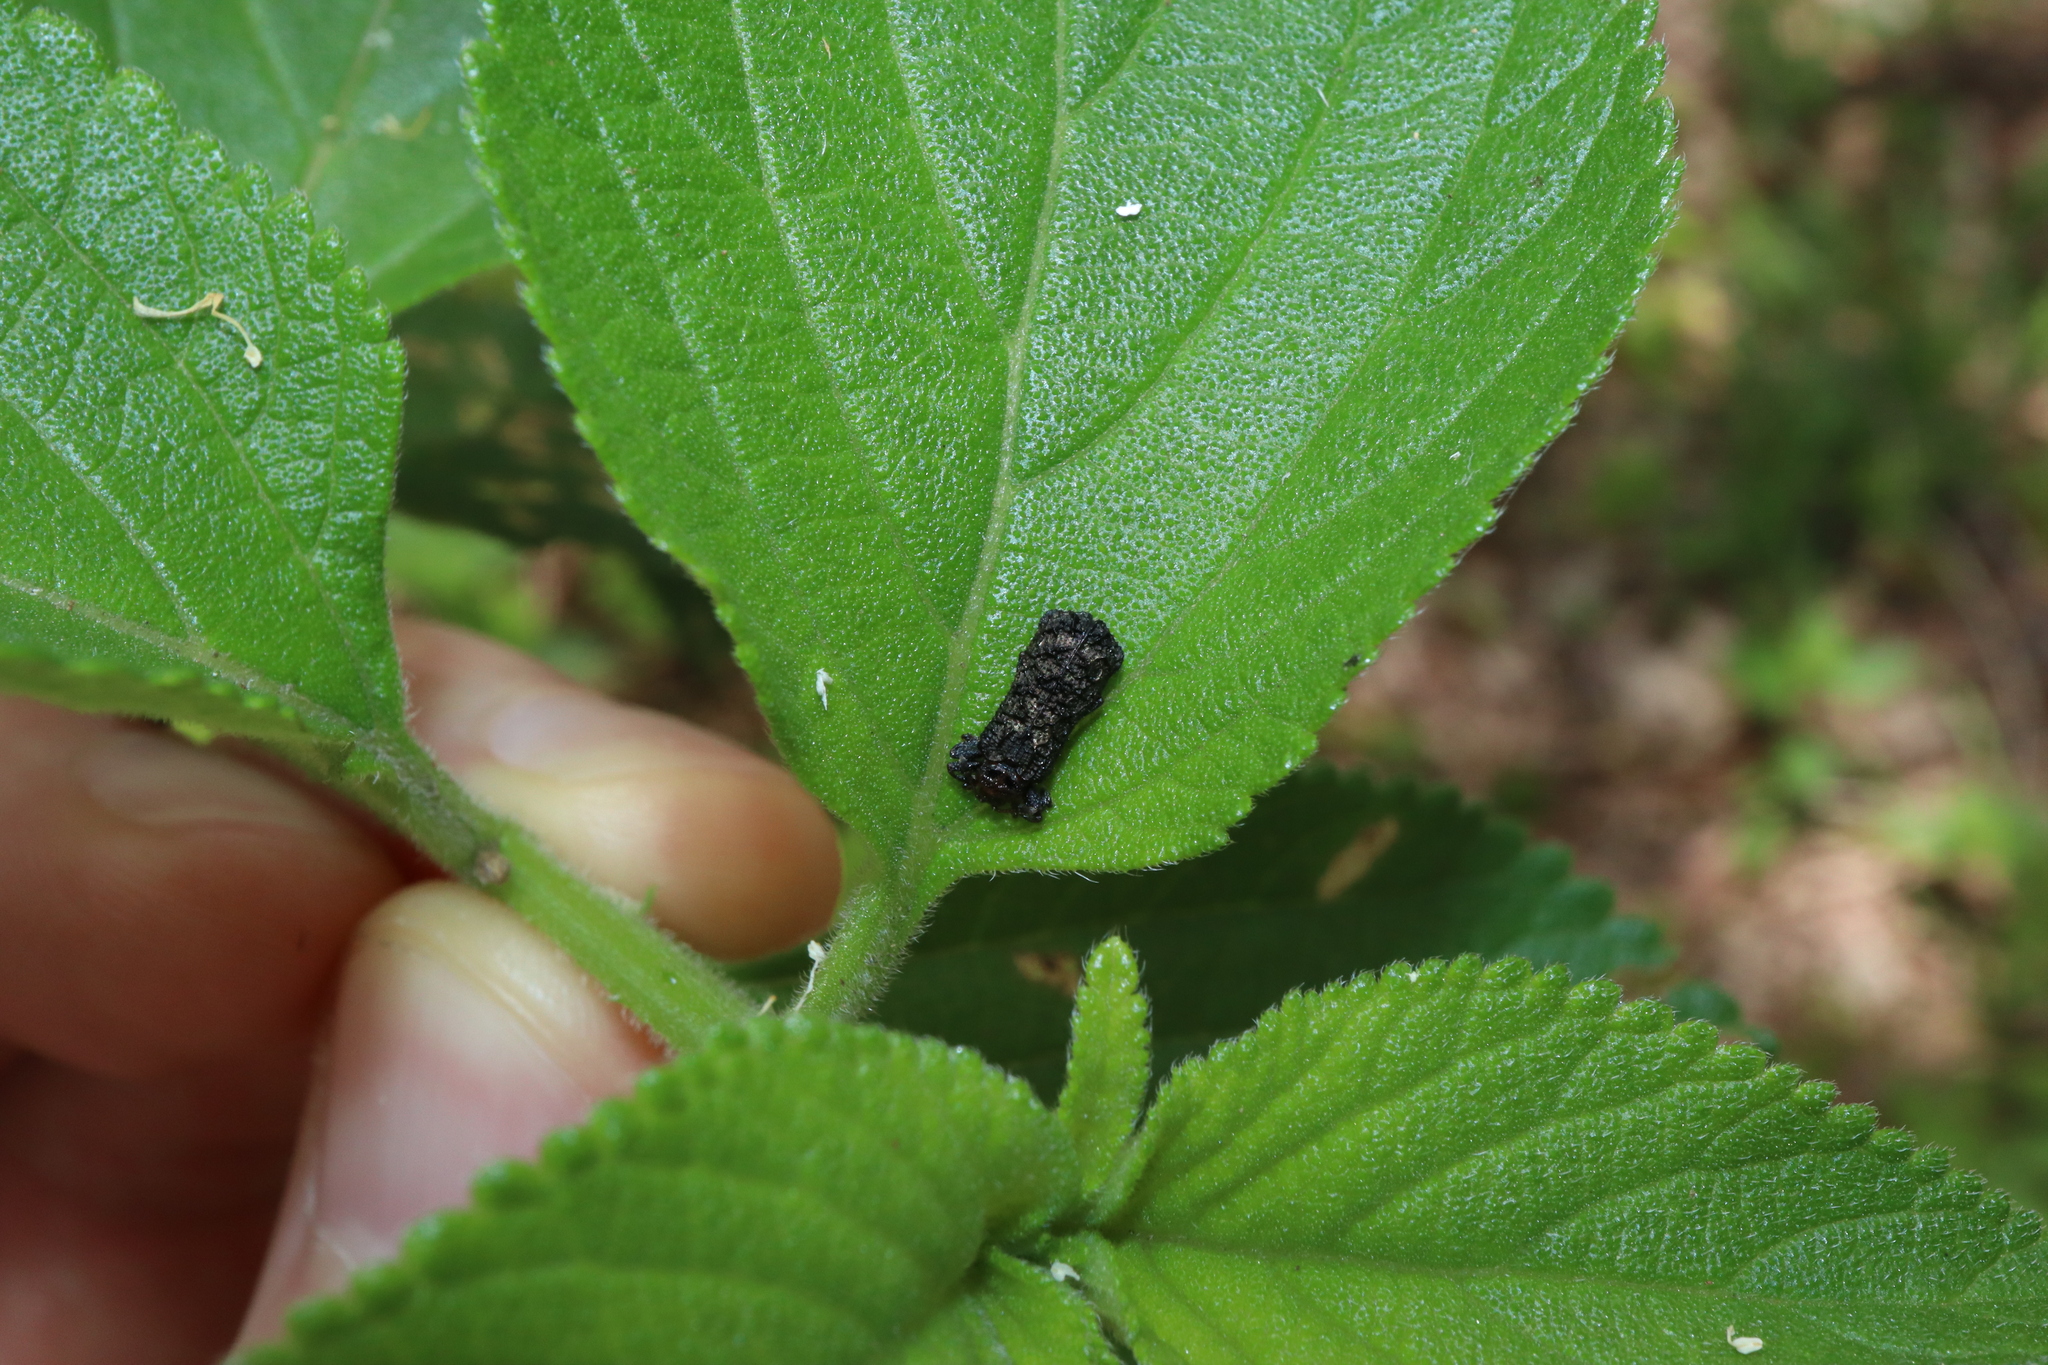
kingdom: Animalia
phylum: Arthropoda
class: Insecta
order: Coleoptera
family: Chrysomelidae
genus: Octotoma
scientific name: Octotoma scabripennis
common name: Beetle
